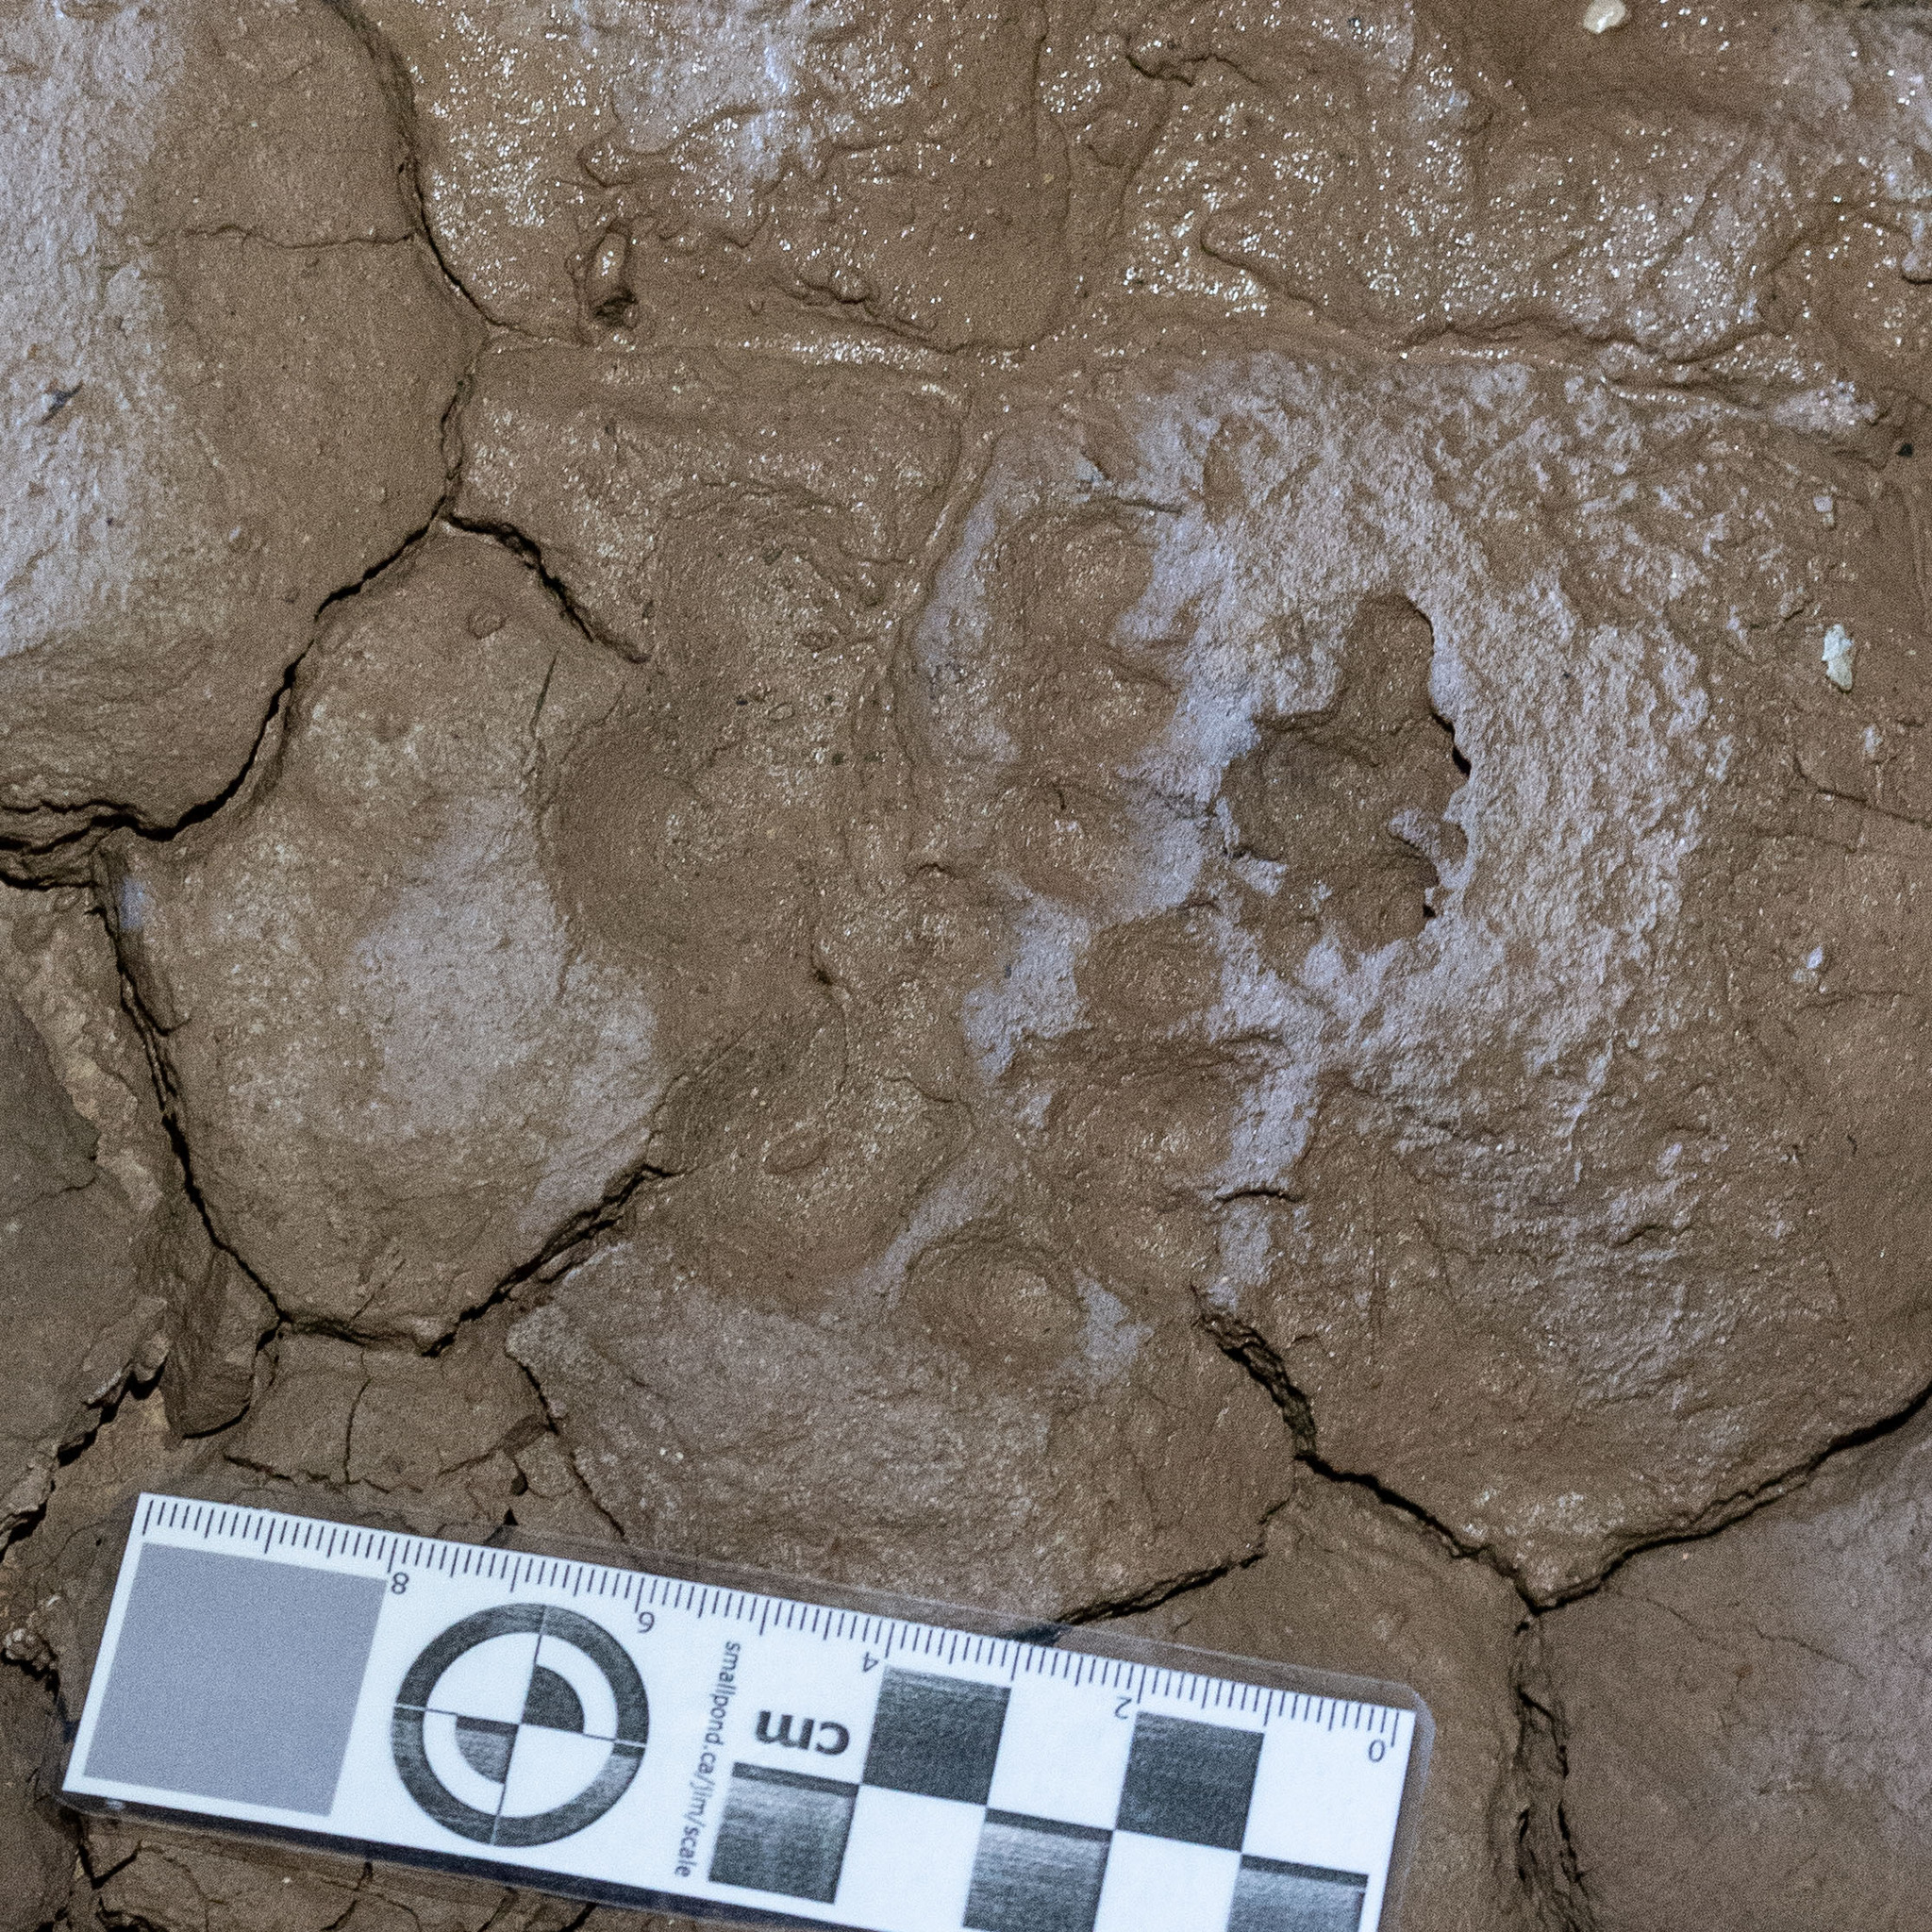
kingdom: Animalia
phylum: Chordata
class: Mammalia
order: Carnivora
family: Mustelidae
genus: Meles
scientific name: Meles meles
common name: Eurasian badger
